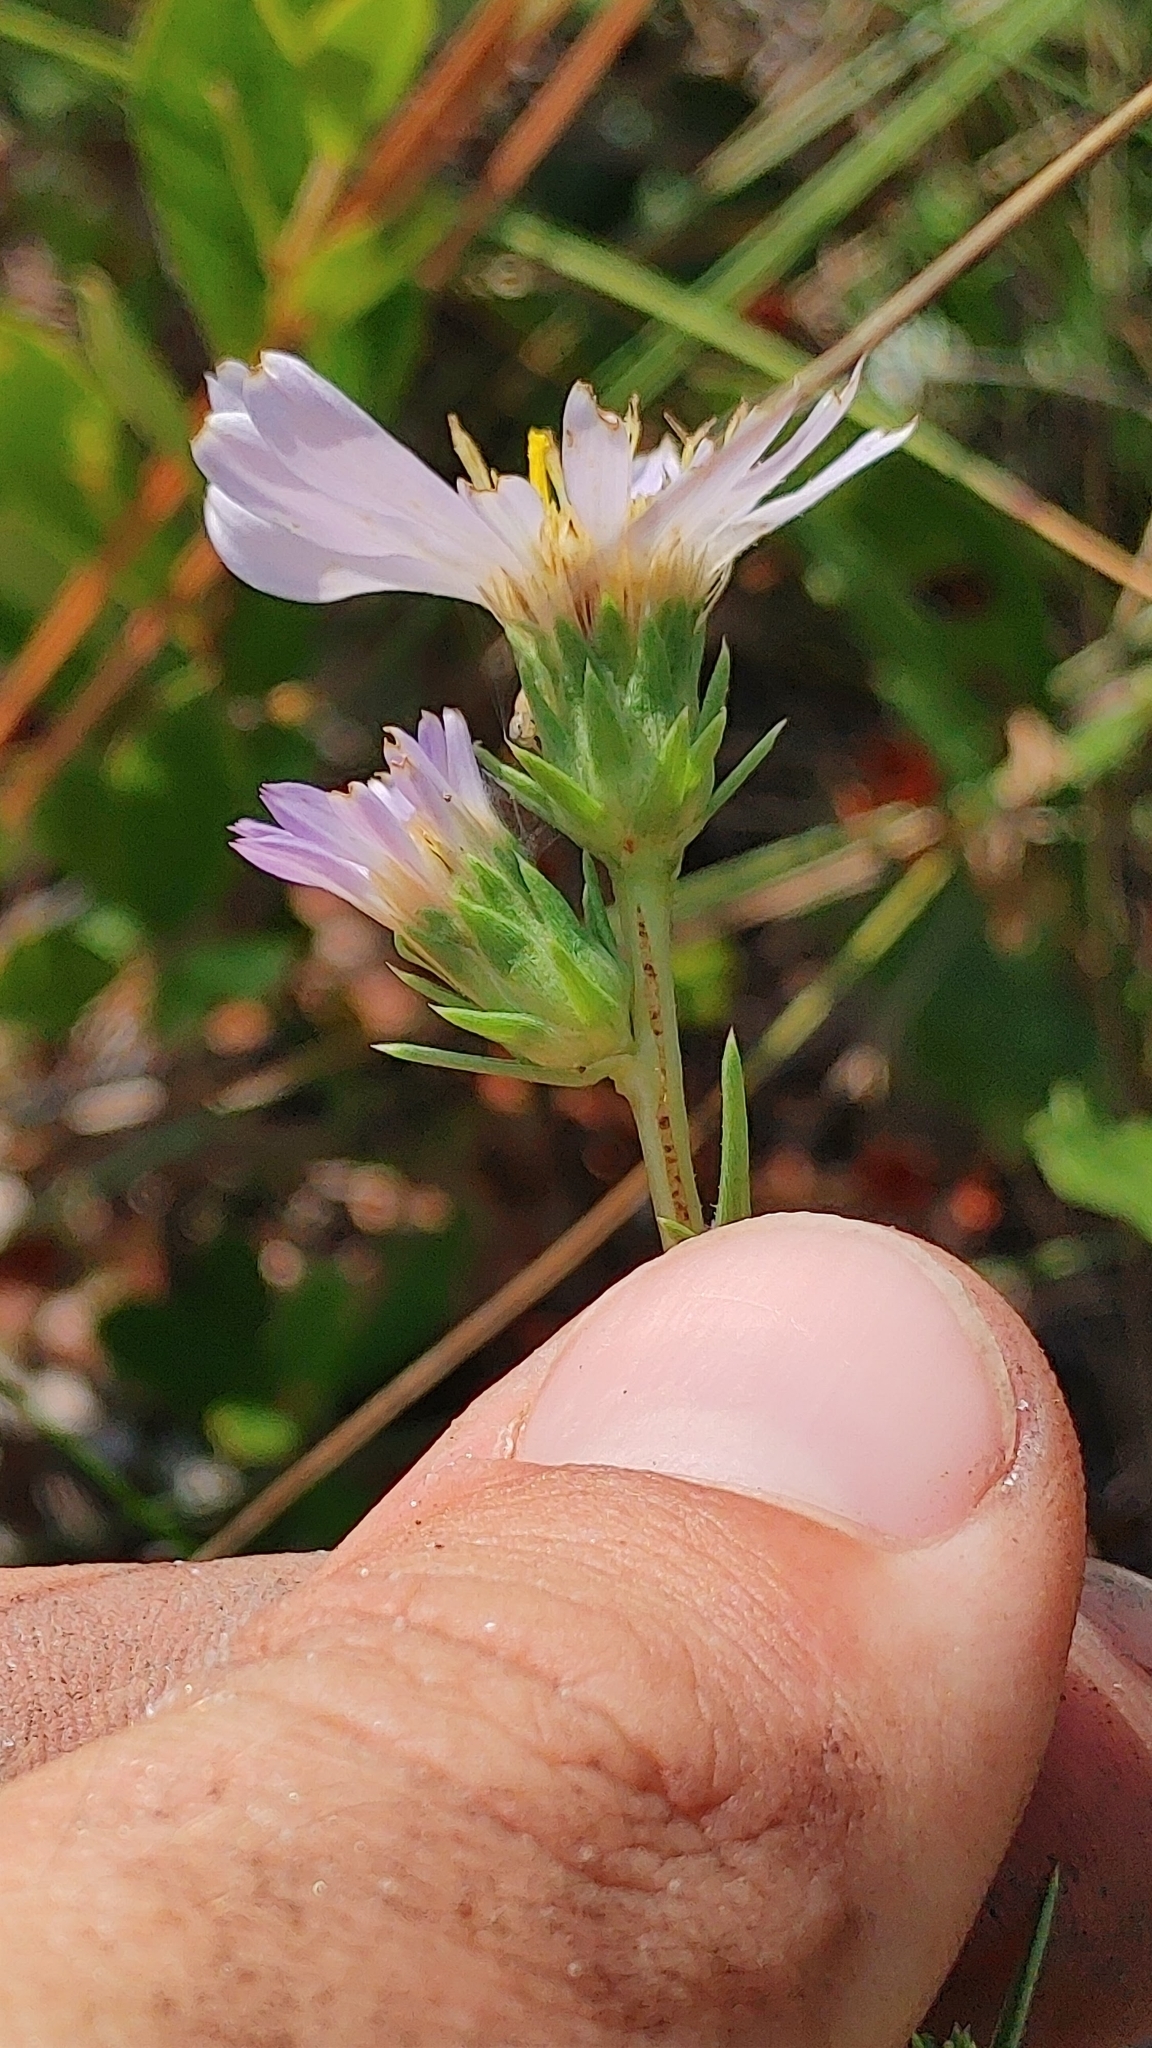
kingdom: Plantae
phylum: Tracheophyta
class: Magnoliopsida
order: Asterales
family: Asteraceae
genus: Eurybia
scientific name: Eurybia spinulosa
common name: Apalachicola aster
